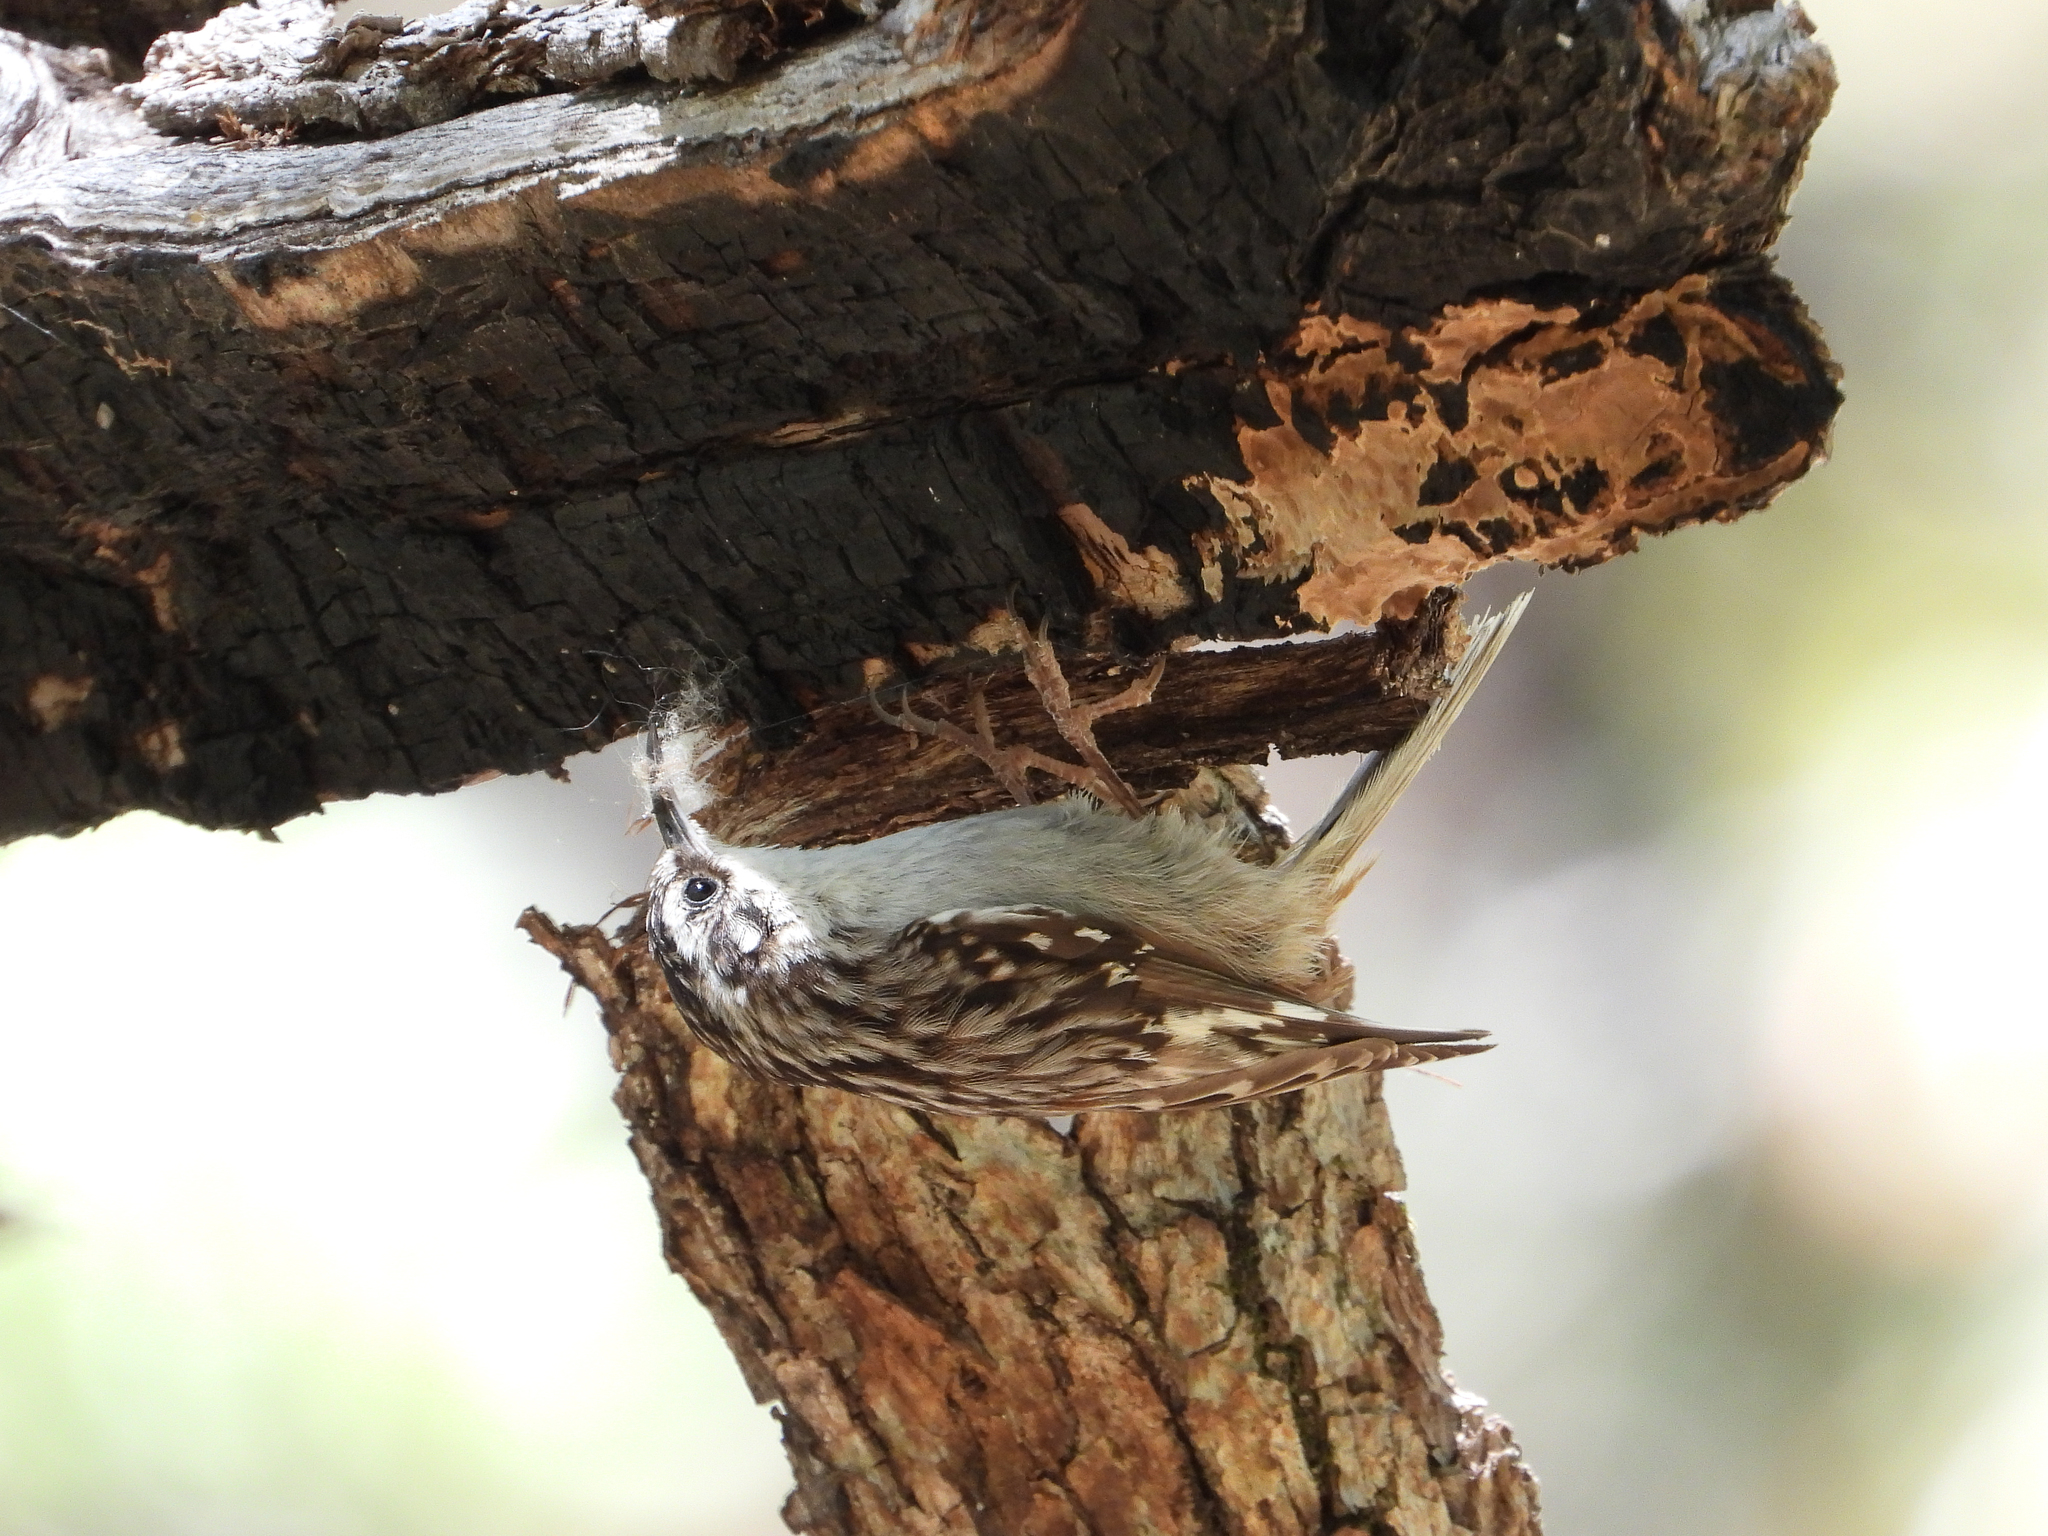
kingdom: Animalia
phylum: Chordata
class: Aves
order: Passeriformes
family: Certhiidae
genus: Certhia
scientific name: Certhia americana
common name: Brown creeper
